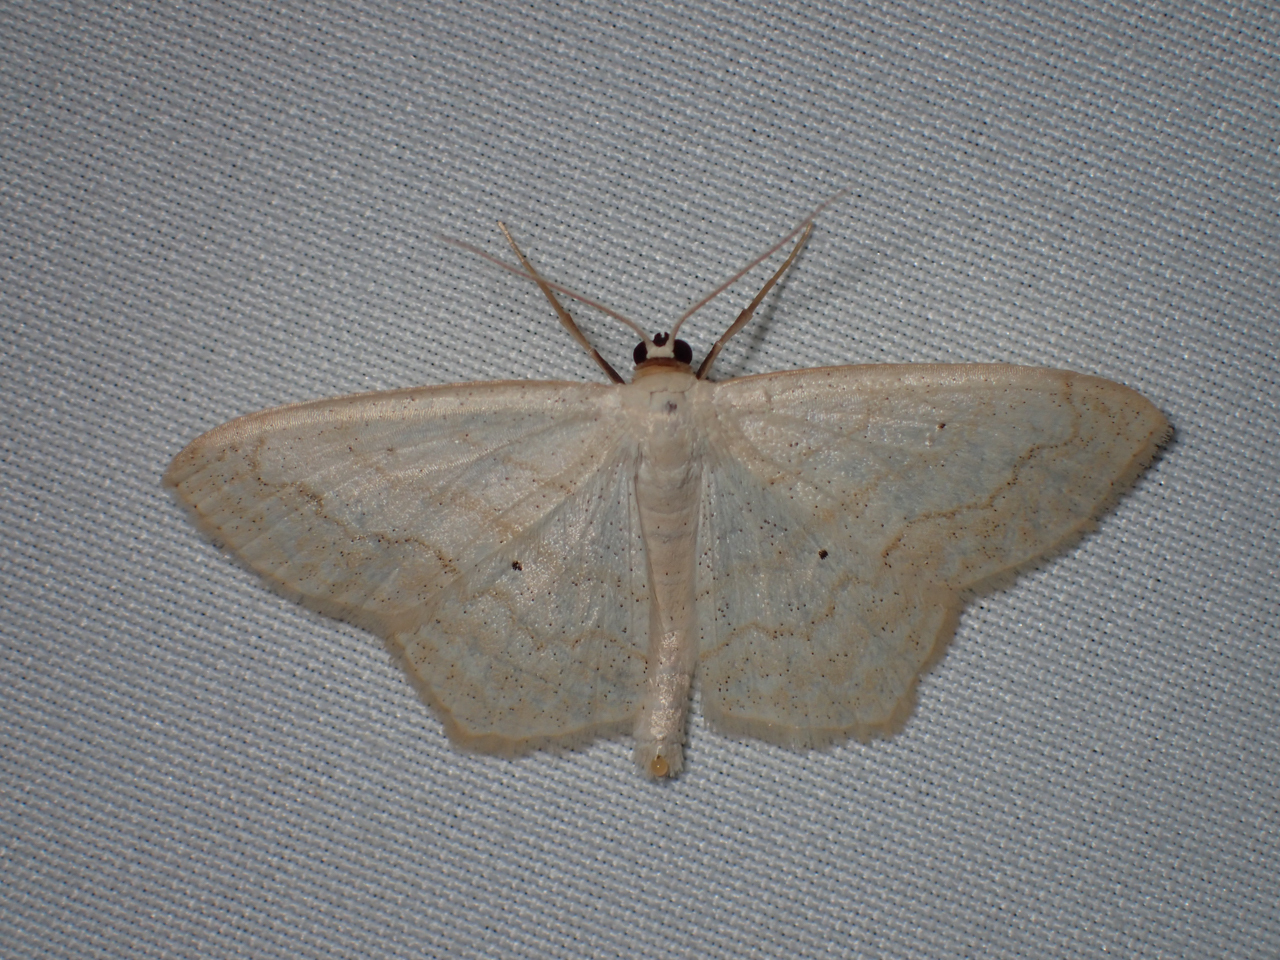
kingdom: Animalia
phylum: Arthropoda
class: Insecta
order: Lepidoptera
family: Geometridae
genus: Scopula
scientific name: Scopula limboundata
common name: Large lace border
